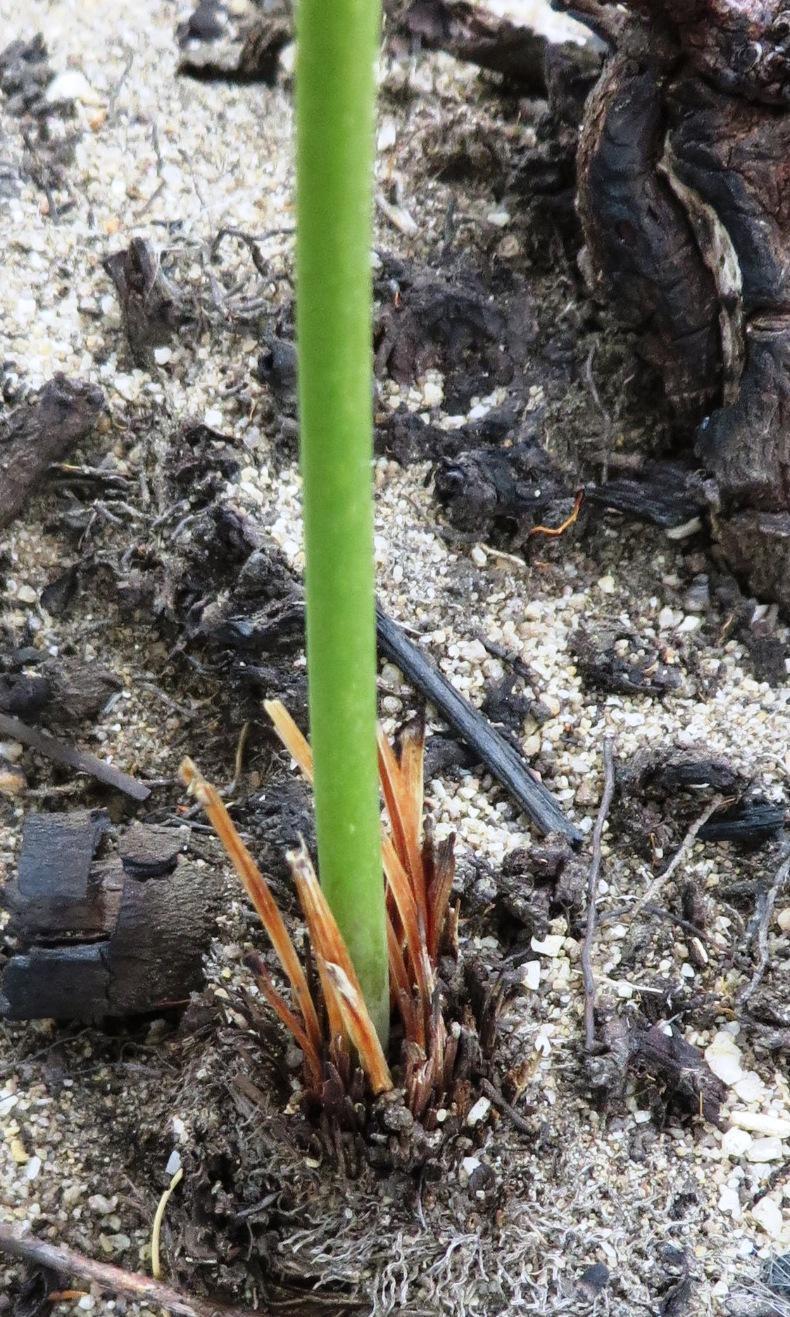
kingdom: Plantae
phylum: Tracheophyta
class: Liliopsida
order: Asparagales
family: Asparagaceae
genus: Drimia
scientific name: Drimia media
